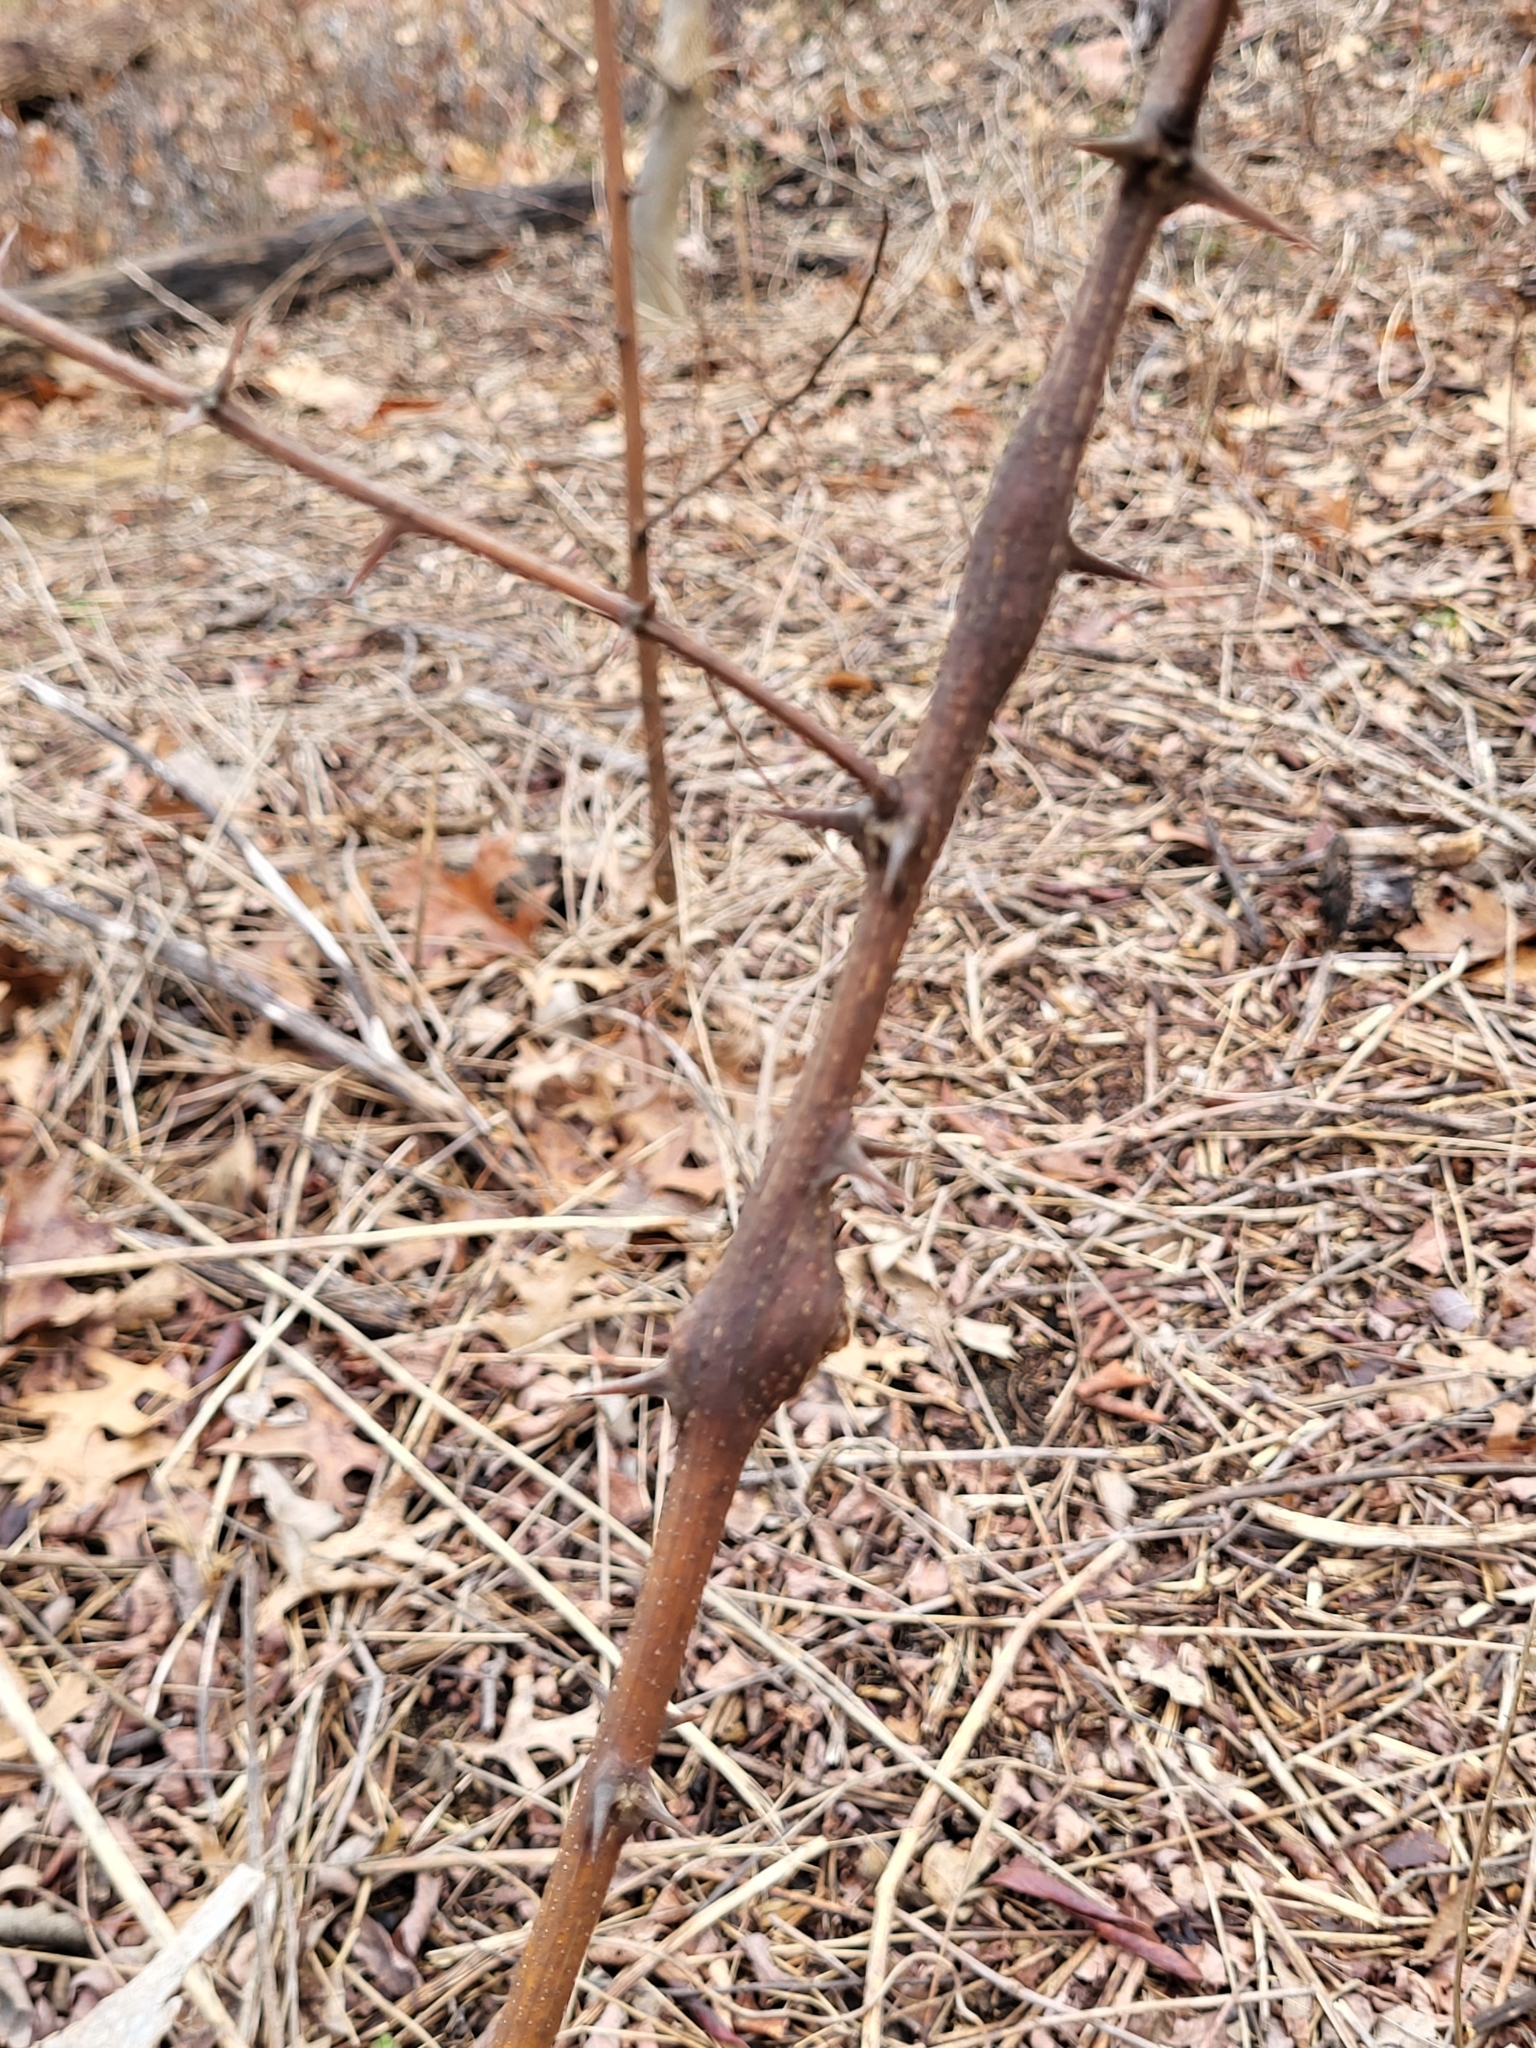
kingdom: Animalia
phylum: Arthropoda
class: Insecta
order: Lepidoptera
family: Tortricidae
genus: Ecdytolopha
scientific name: Ecdytolopha insiticiana
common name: Locust twig borer moth
